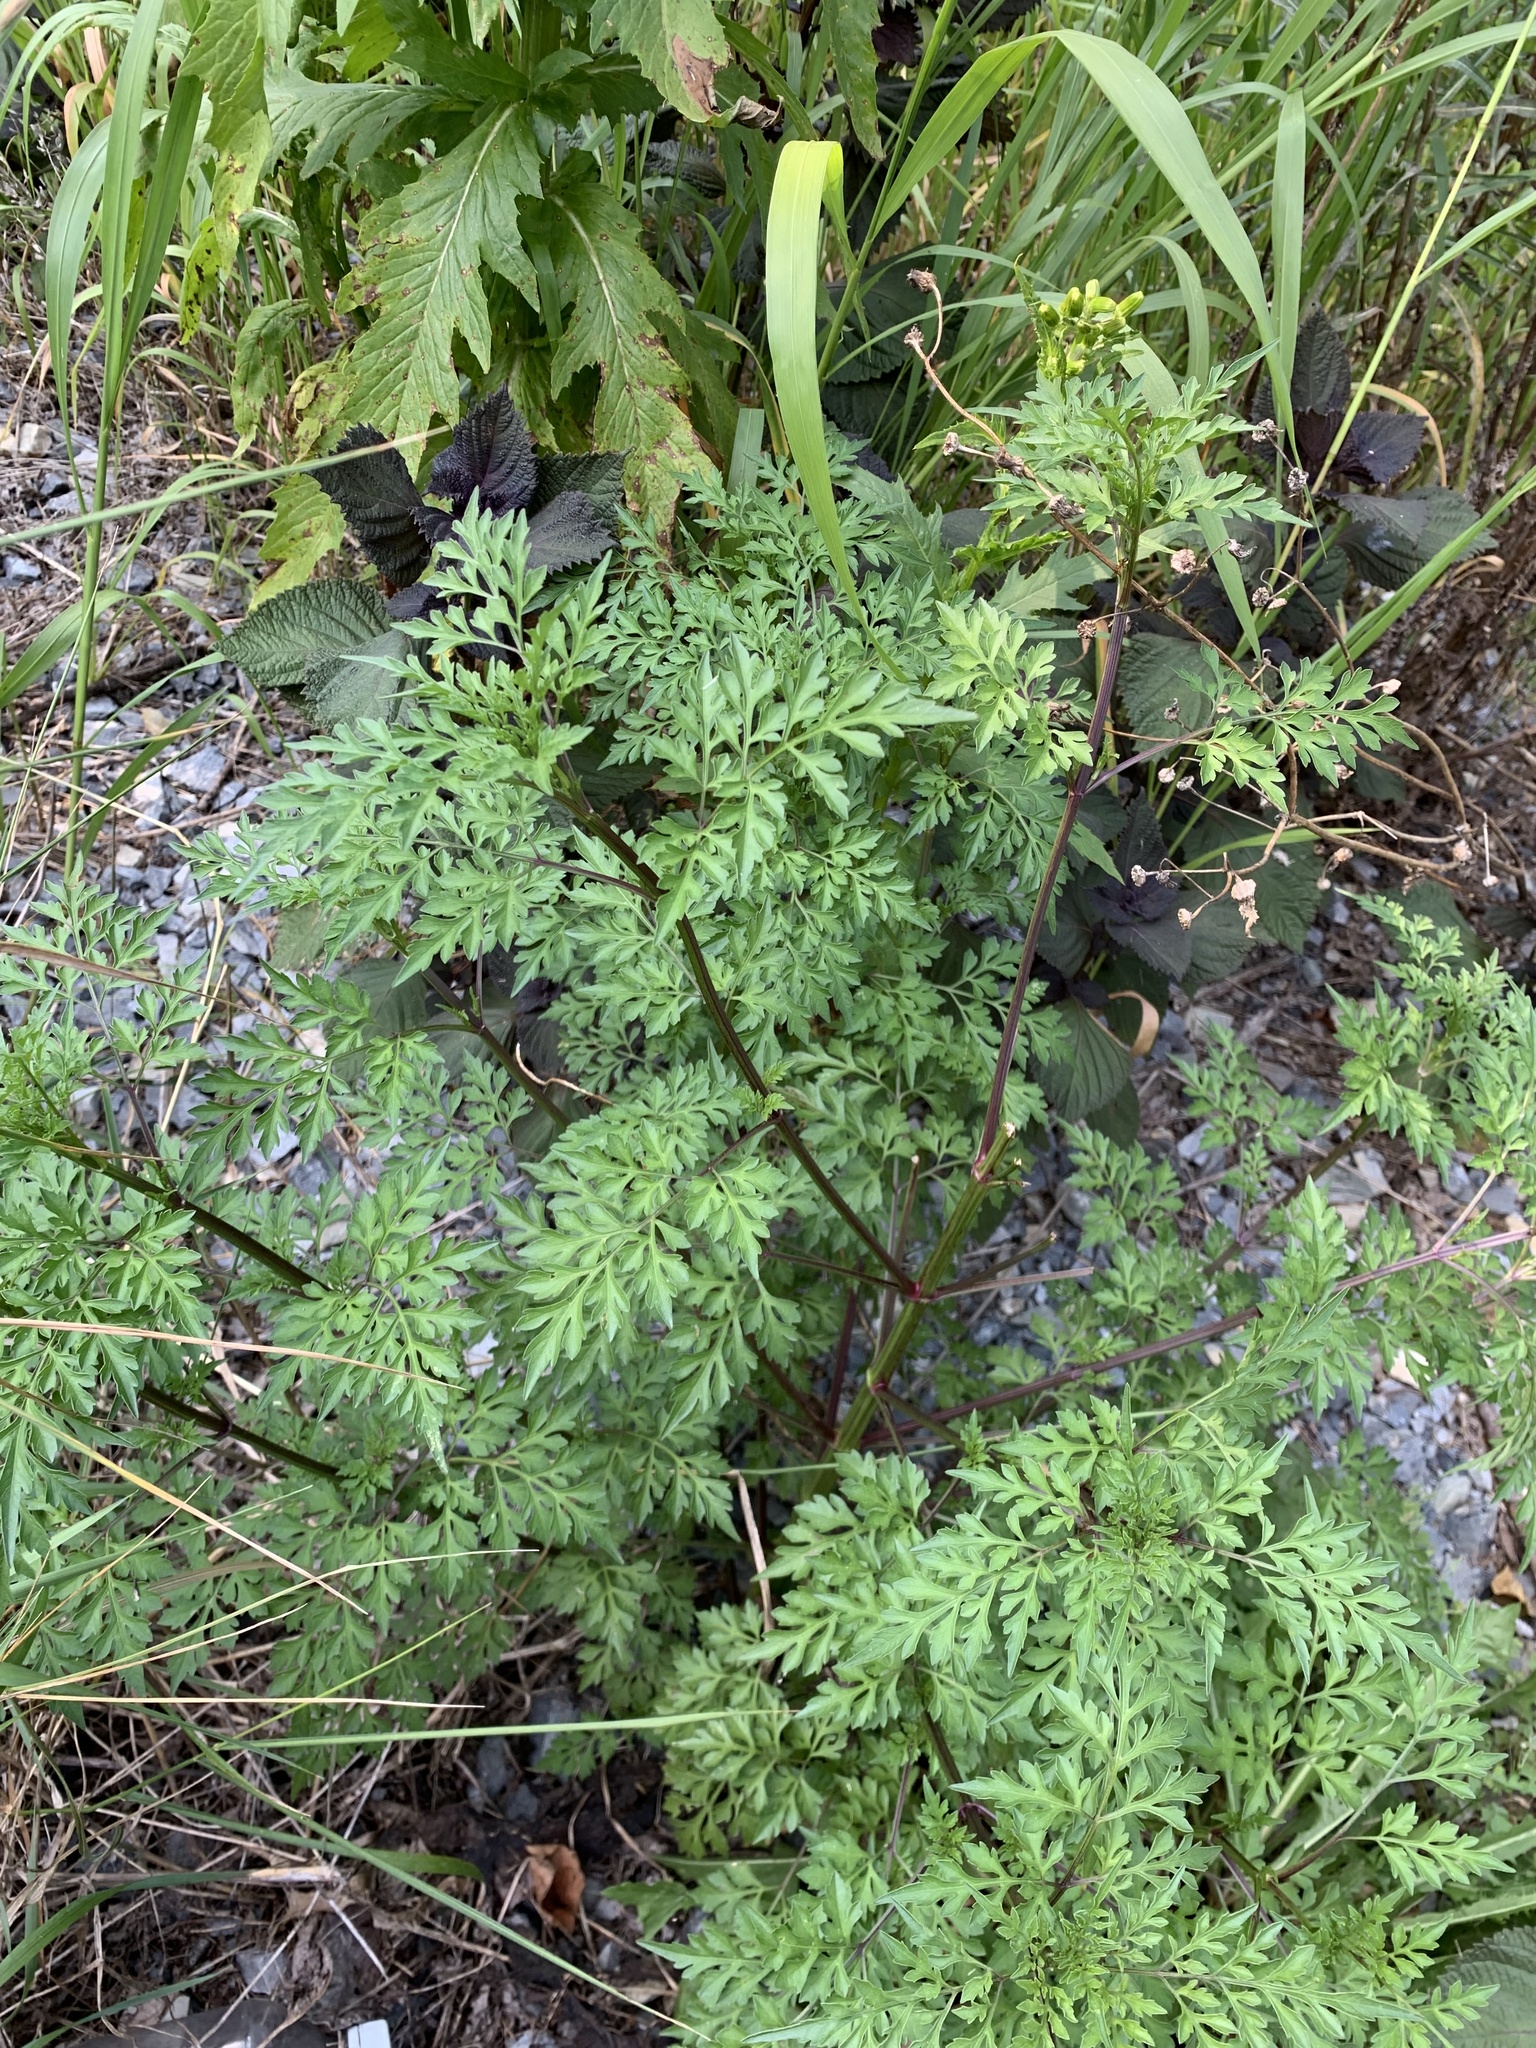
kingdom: Plantae
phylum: Tracheophyta
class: Magnoliopsida
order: Asterales
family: Asteraceae
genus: Bidens
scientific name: Bidens bipinnata
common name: Spanish-needles
